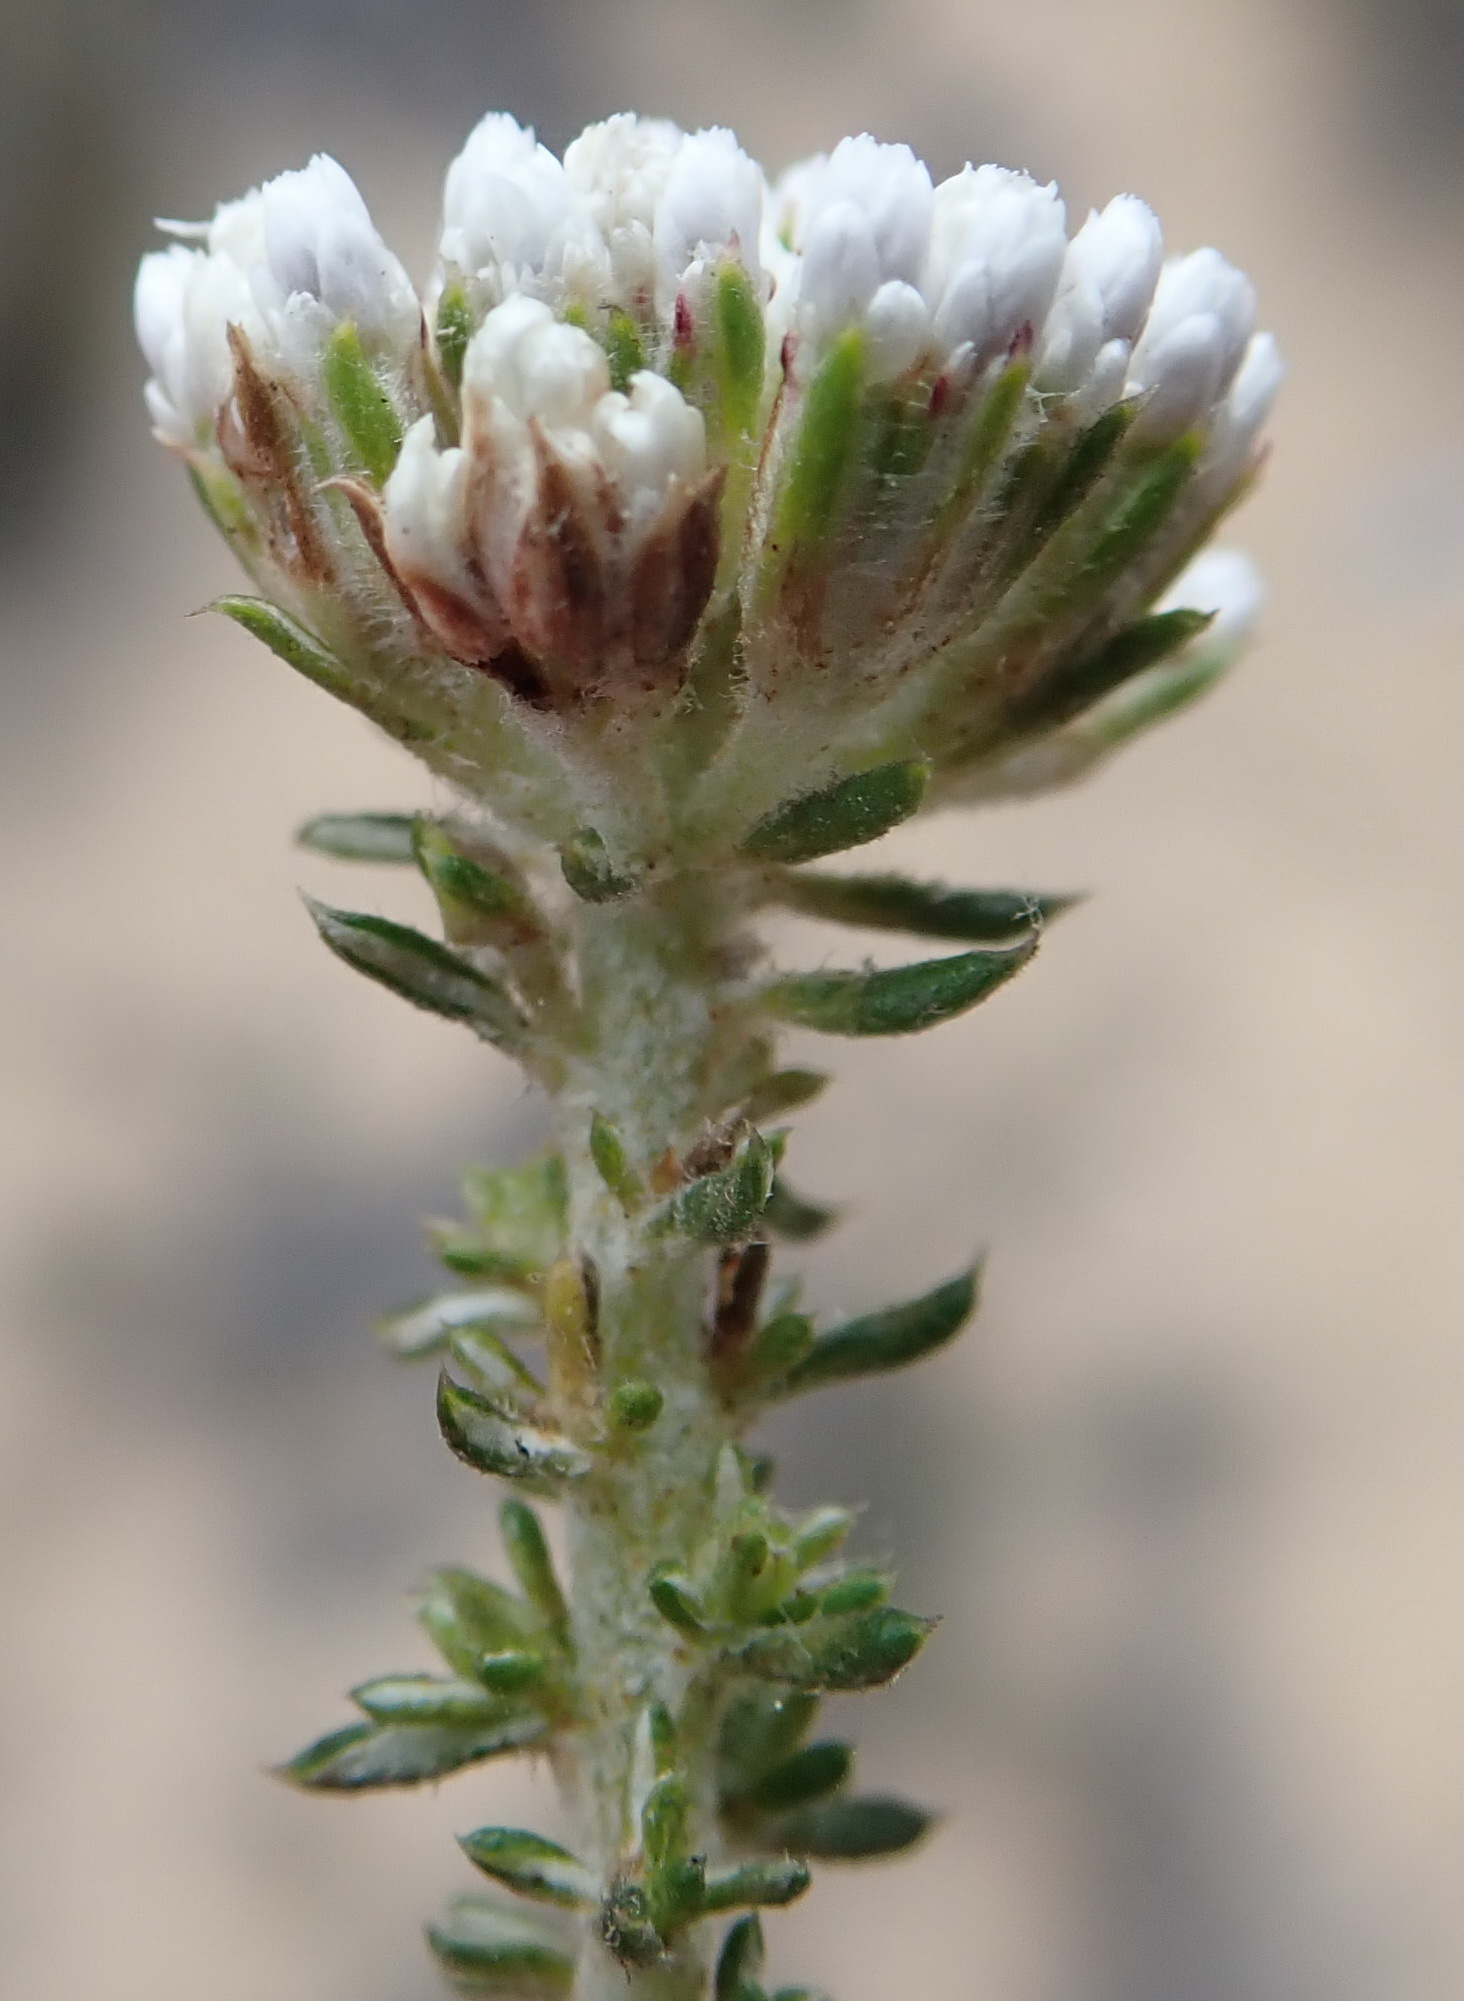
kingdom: Plantae
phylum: Tracheophyta
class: Magnoliopsida
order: Asterales
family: Asteraceae
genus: Metalasia
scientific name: Metalasia muricata
